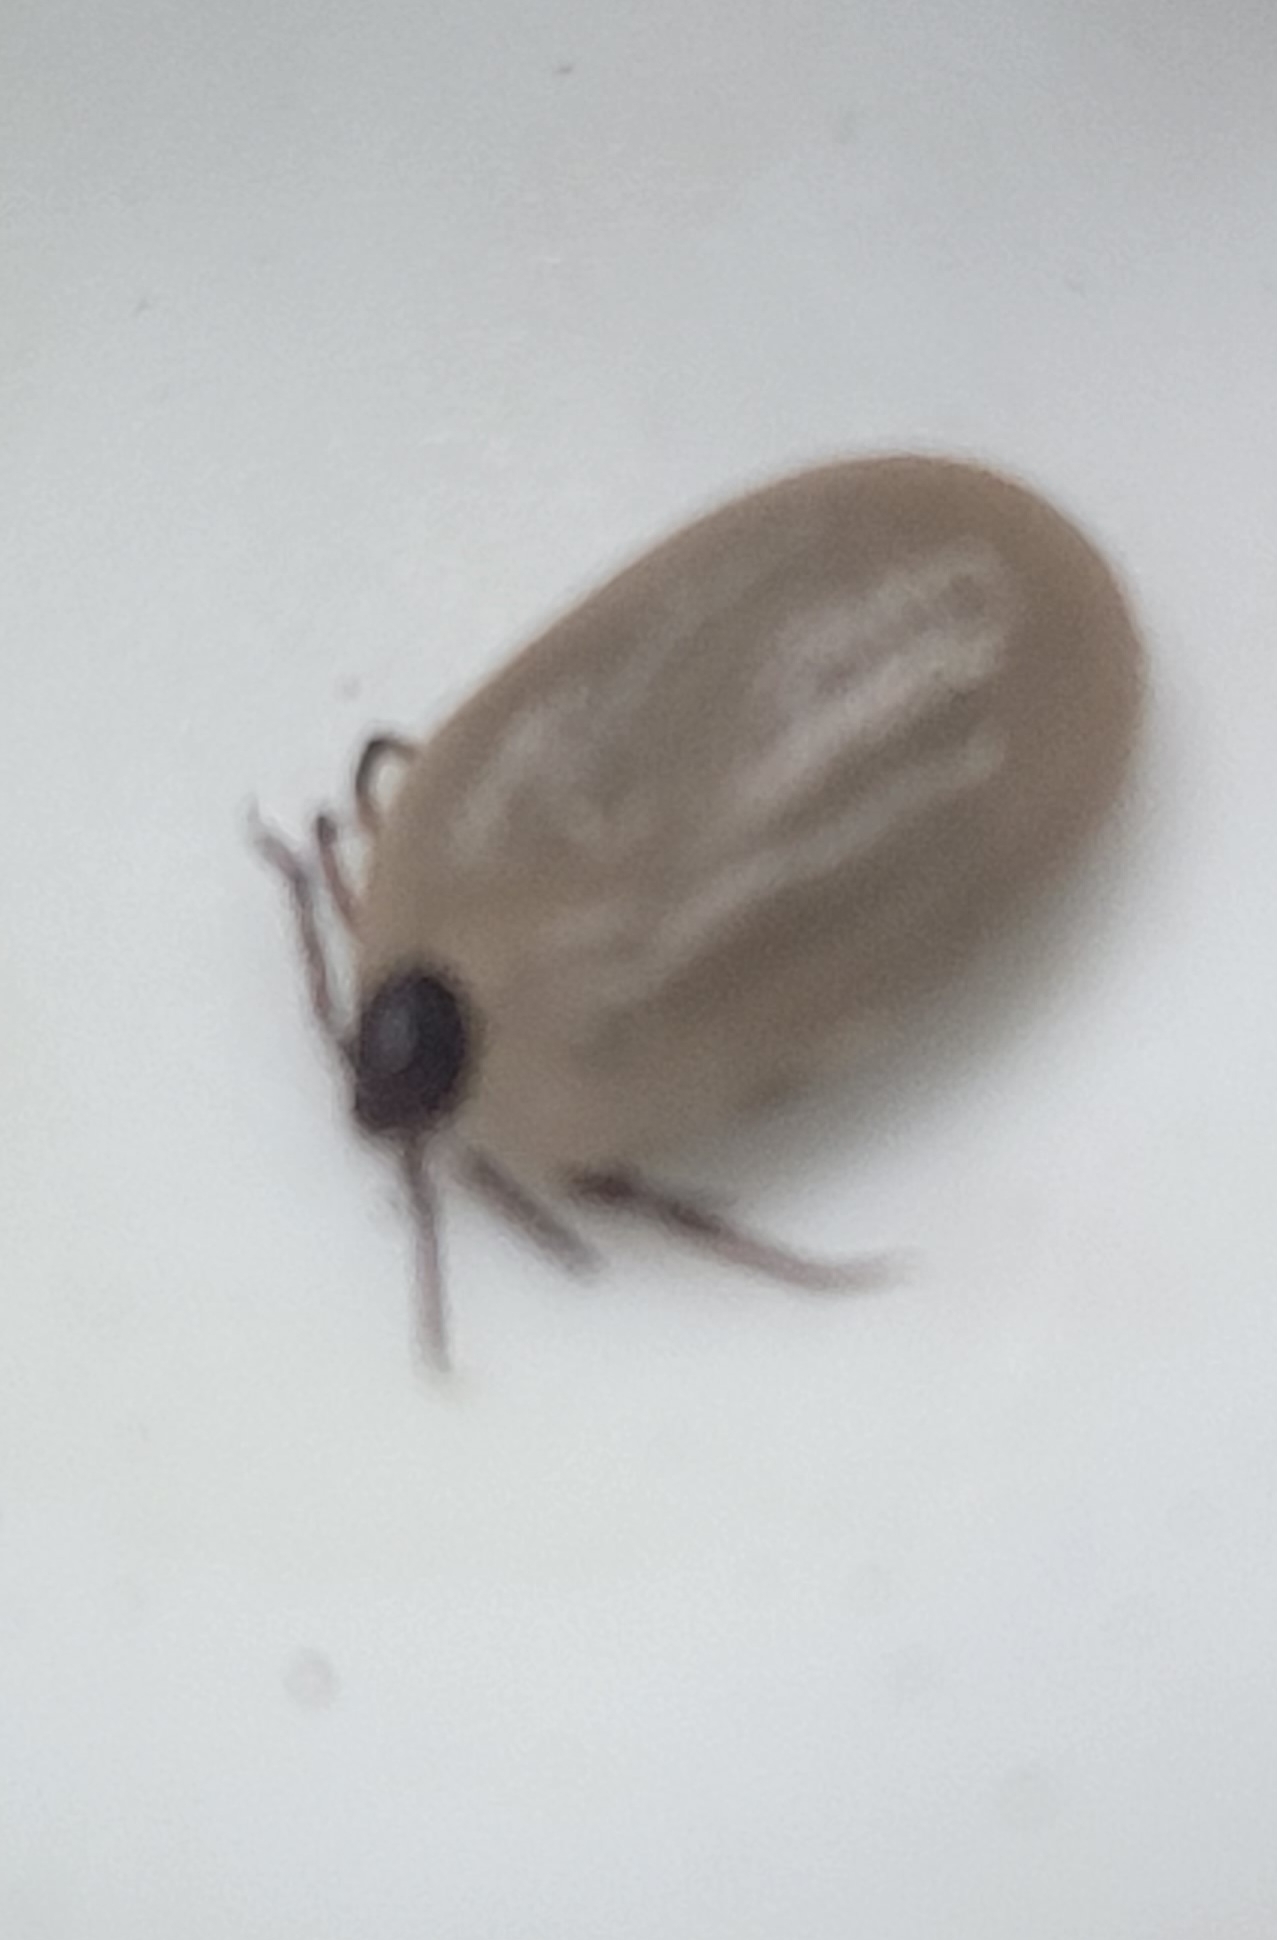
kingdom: Animalia
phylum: Arthropoda
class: Arachnida
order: Ixodida
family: Ixodidae
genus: Ixodes
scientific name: Ixodes scapularis
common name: Black legged tick
